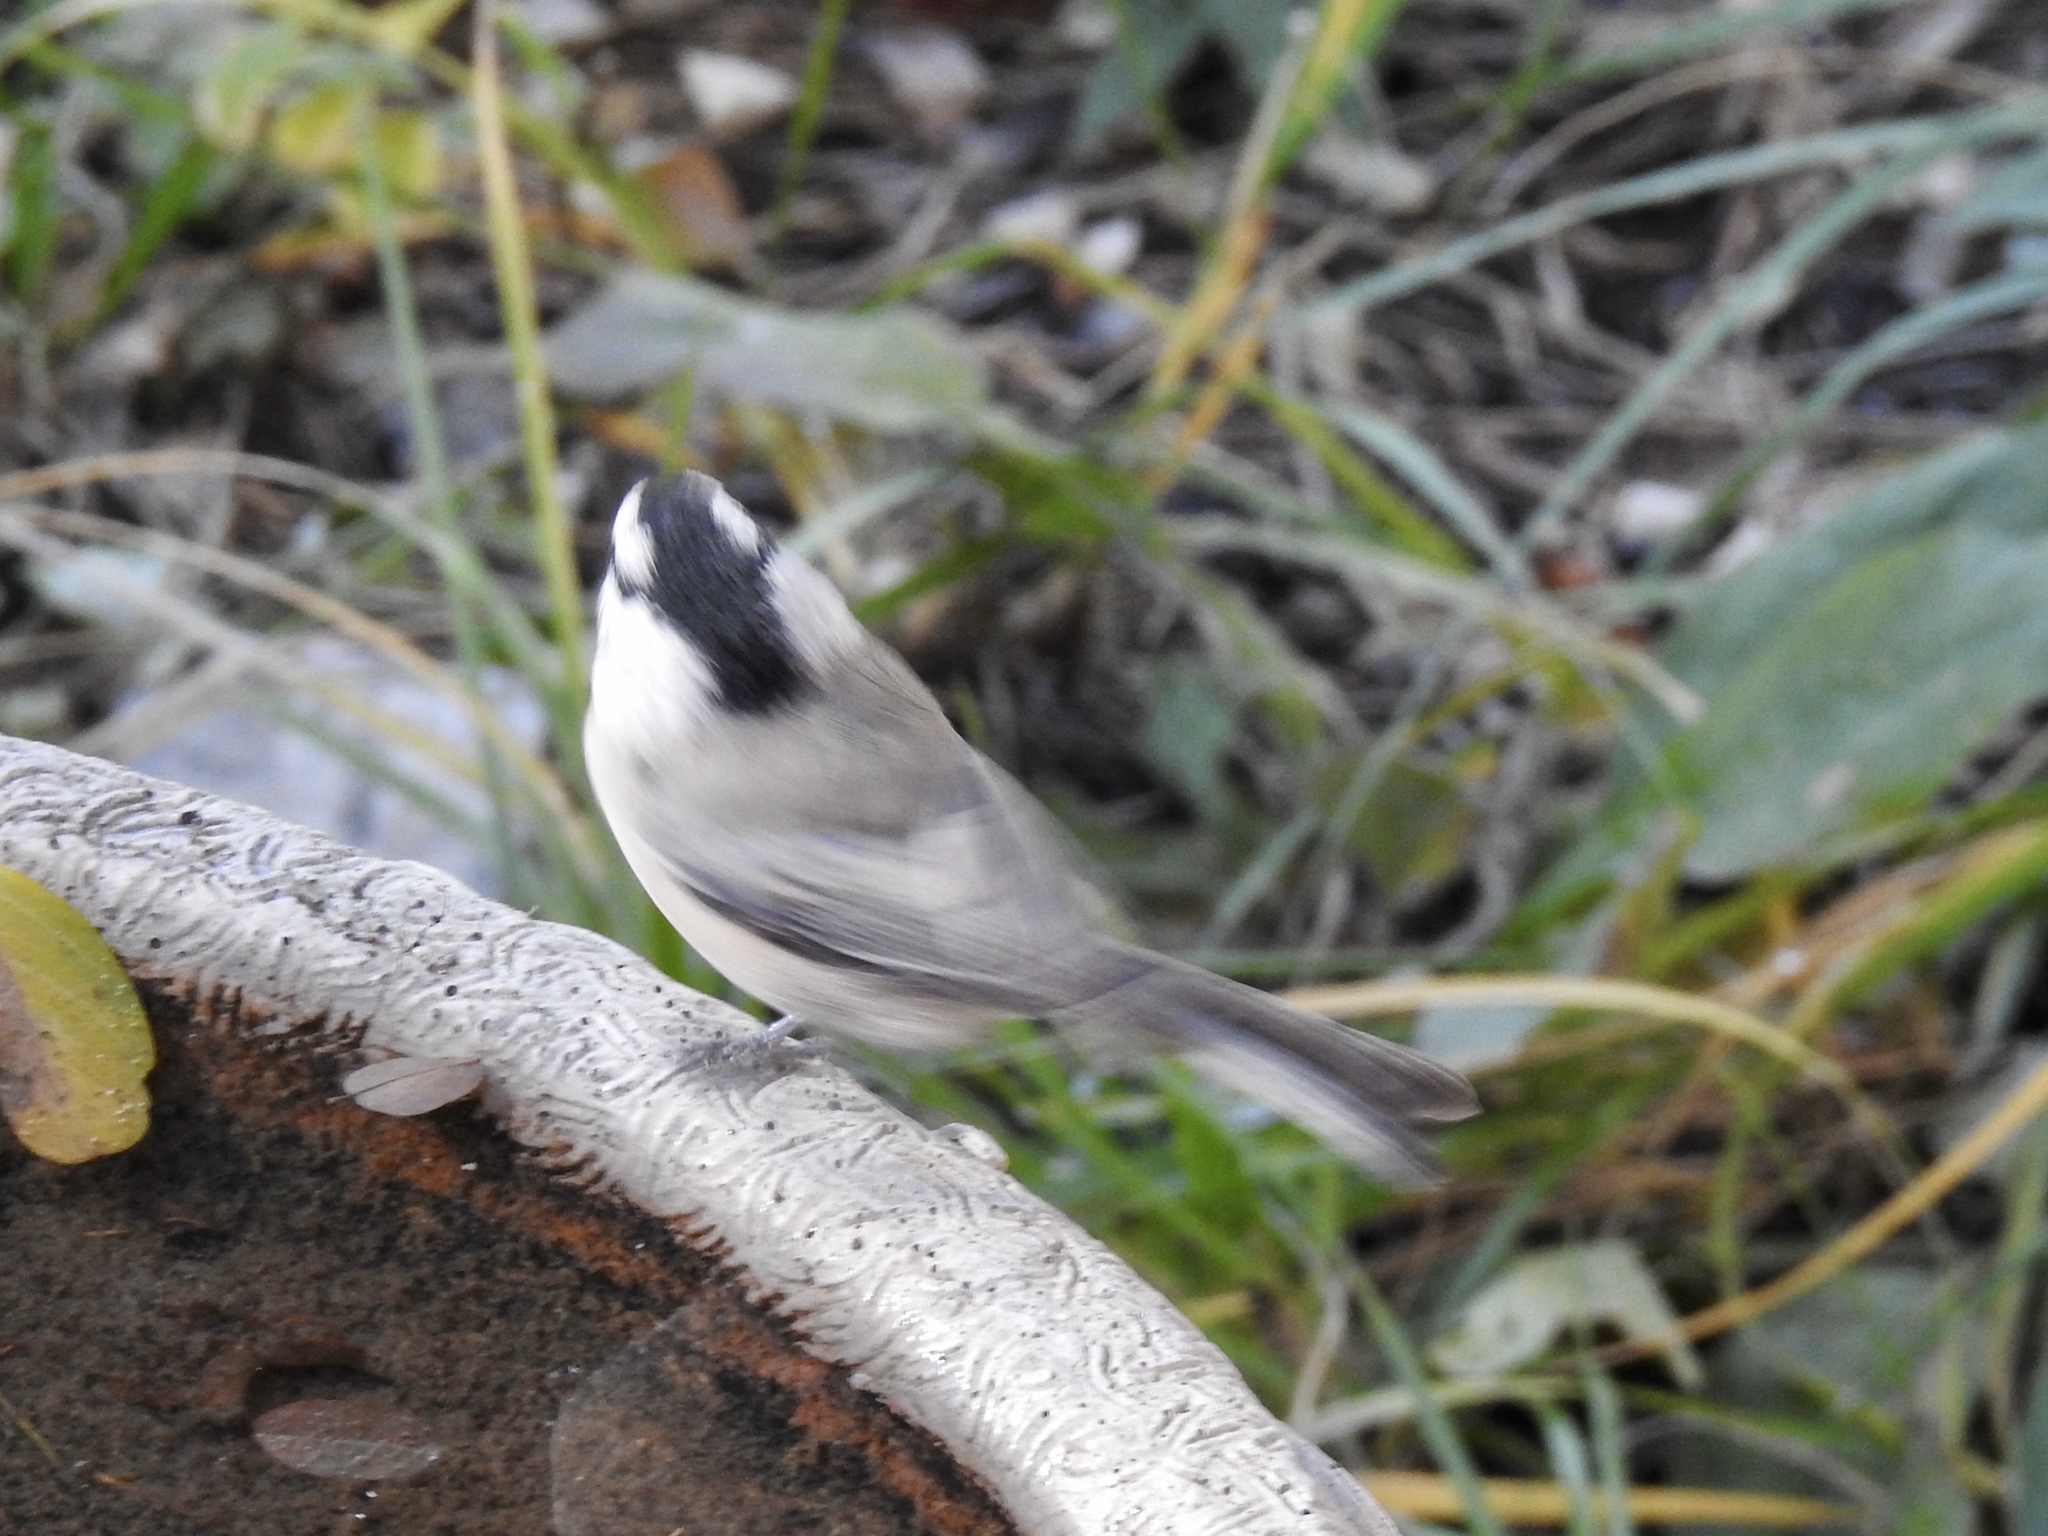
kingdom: Animalia
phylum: Chordata
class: Aves
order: Passeriformes
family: Paridae
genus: Poecile
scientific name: Poecile gambeli
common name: Mountain chickadee
